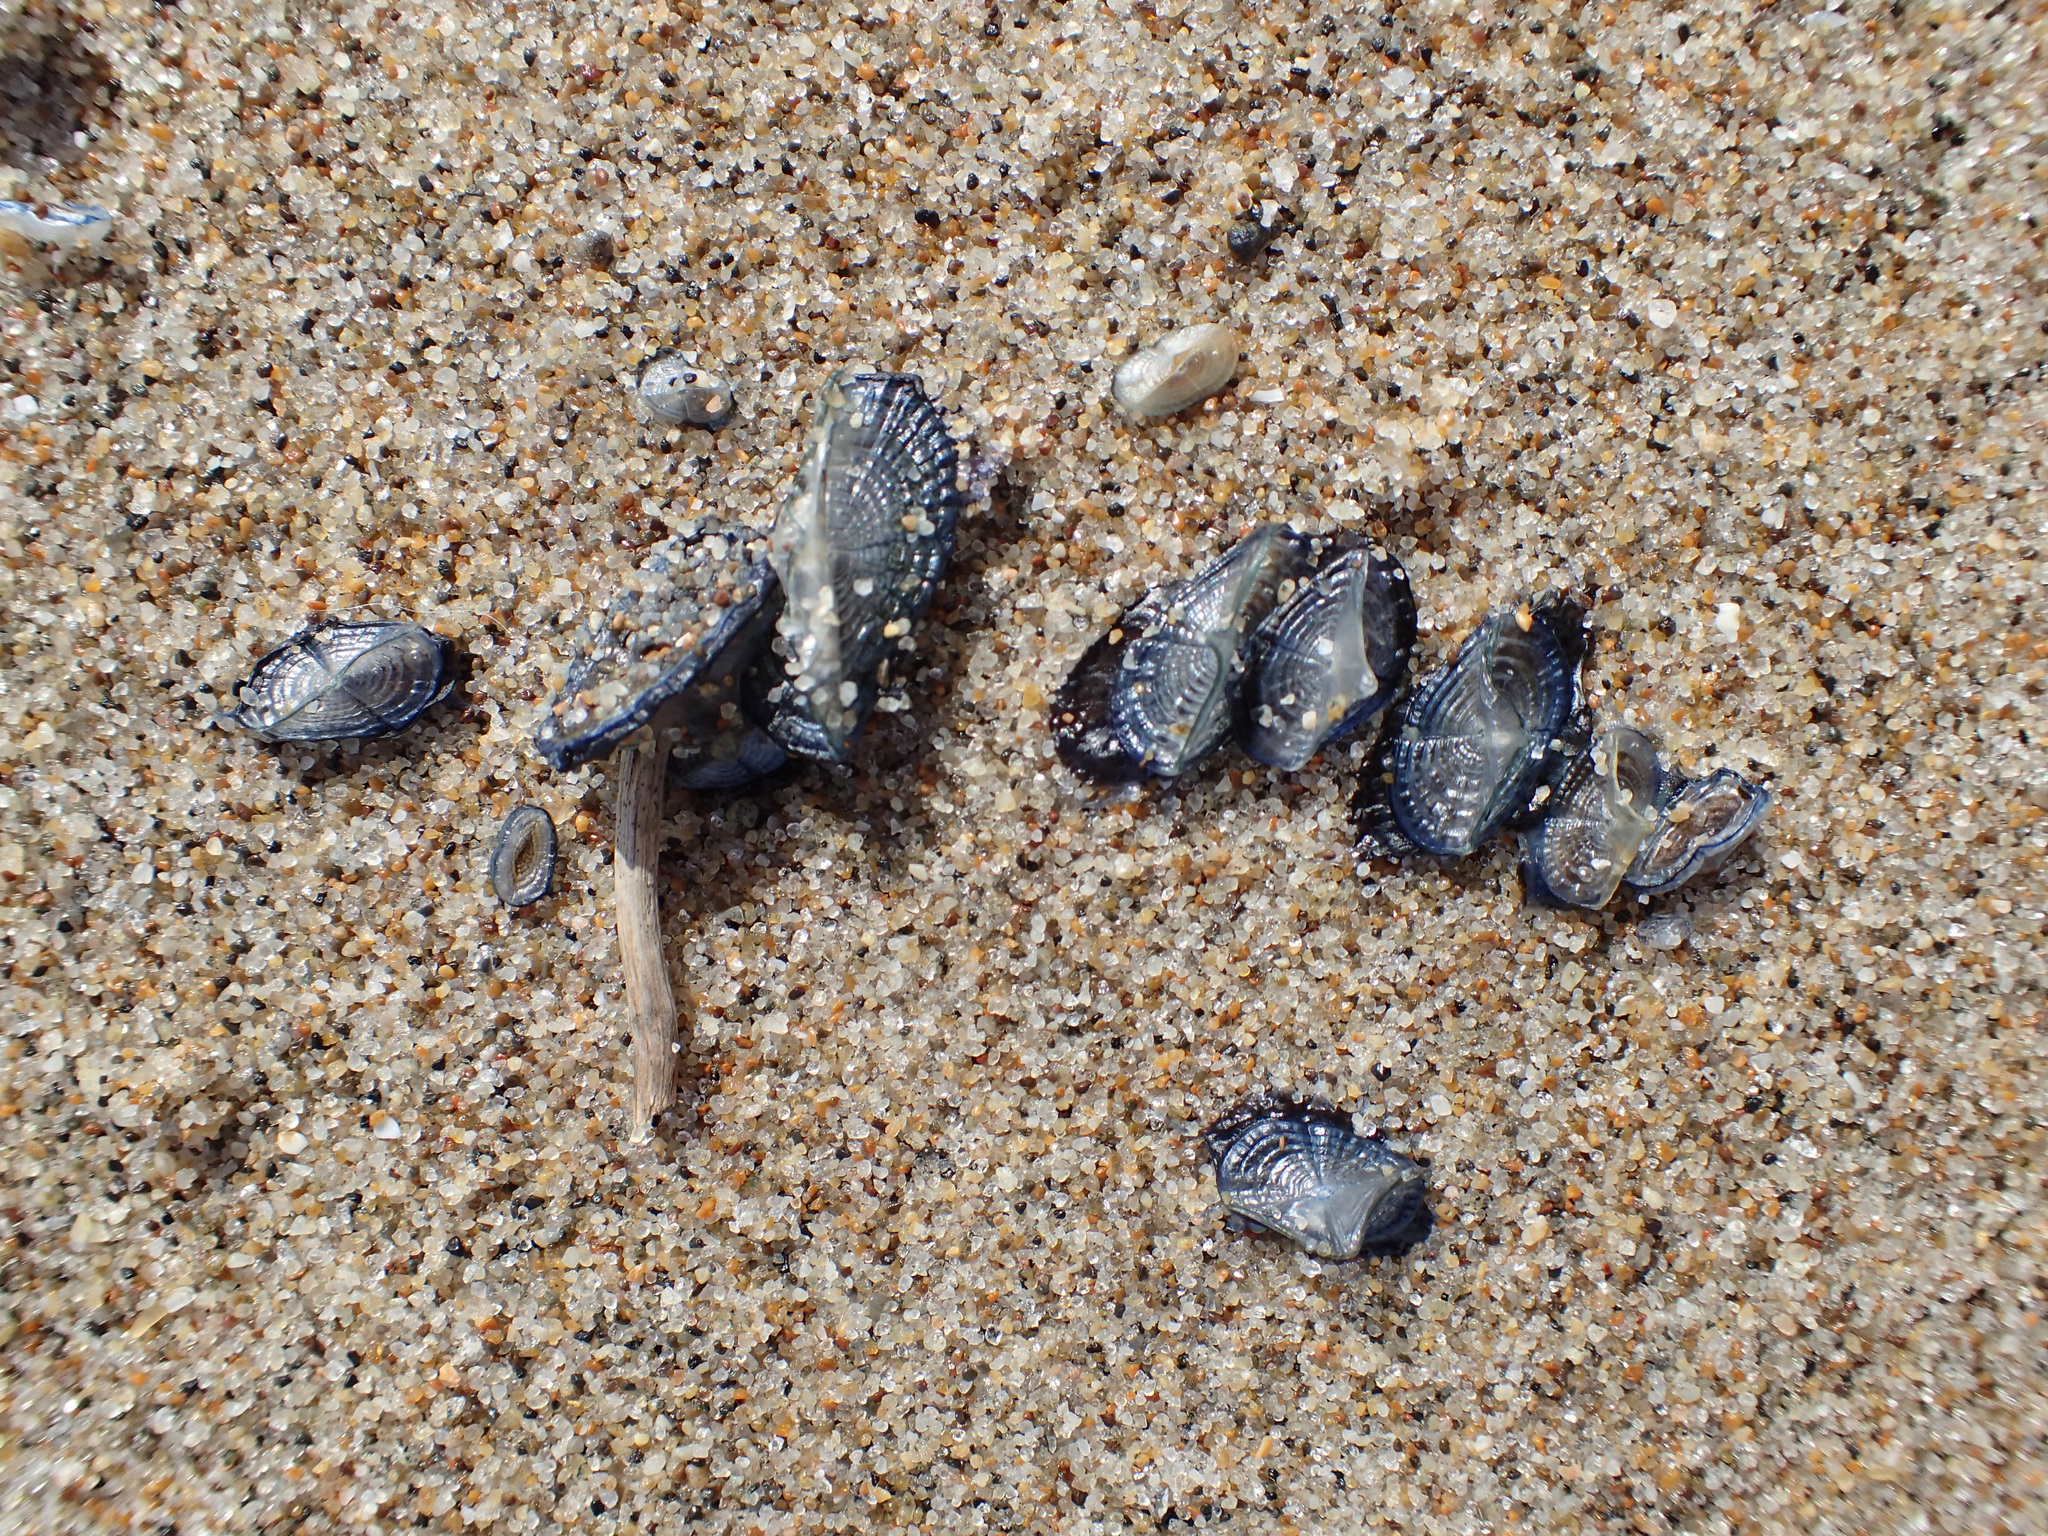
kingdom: Animalia
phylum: Cnidaria
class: Hydrozoa
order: Anthoathecata
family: Porpitidae
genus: Velella
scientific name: Velella velella
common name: By-the-wind-sailor
